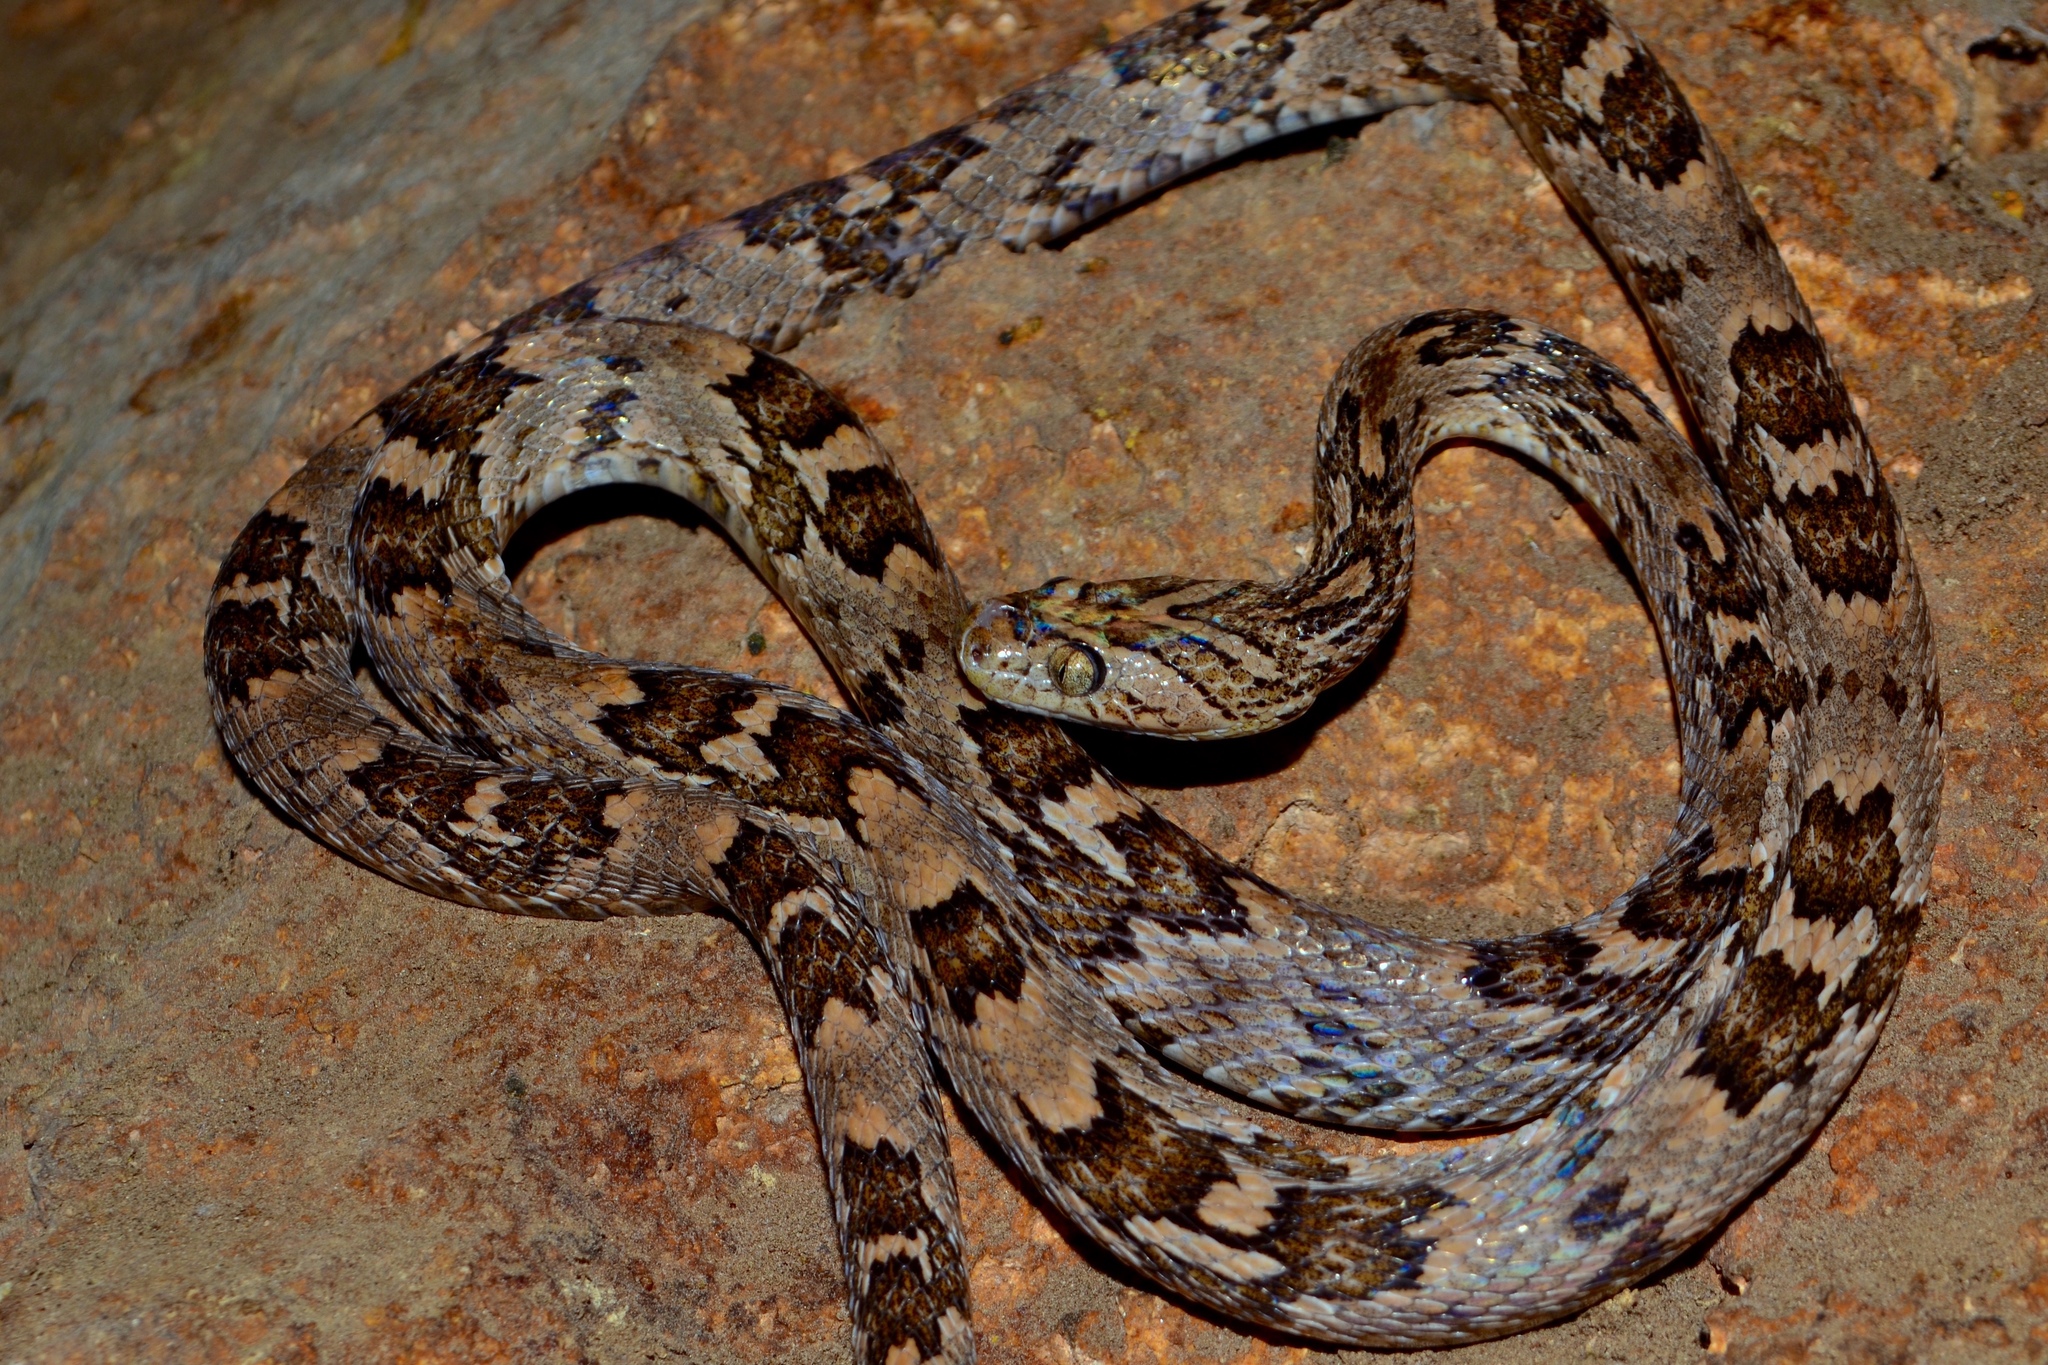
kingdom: Animalia
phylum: Chordata
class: Squamata
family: Colubridae
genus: Trimorphodon
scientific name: Trimorphodon biscutatus
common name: Costal lyre snake
